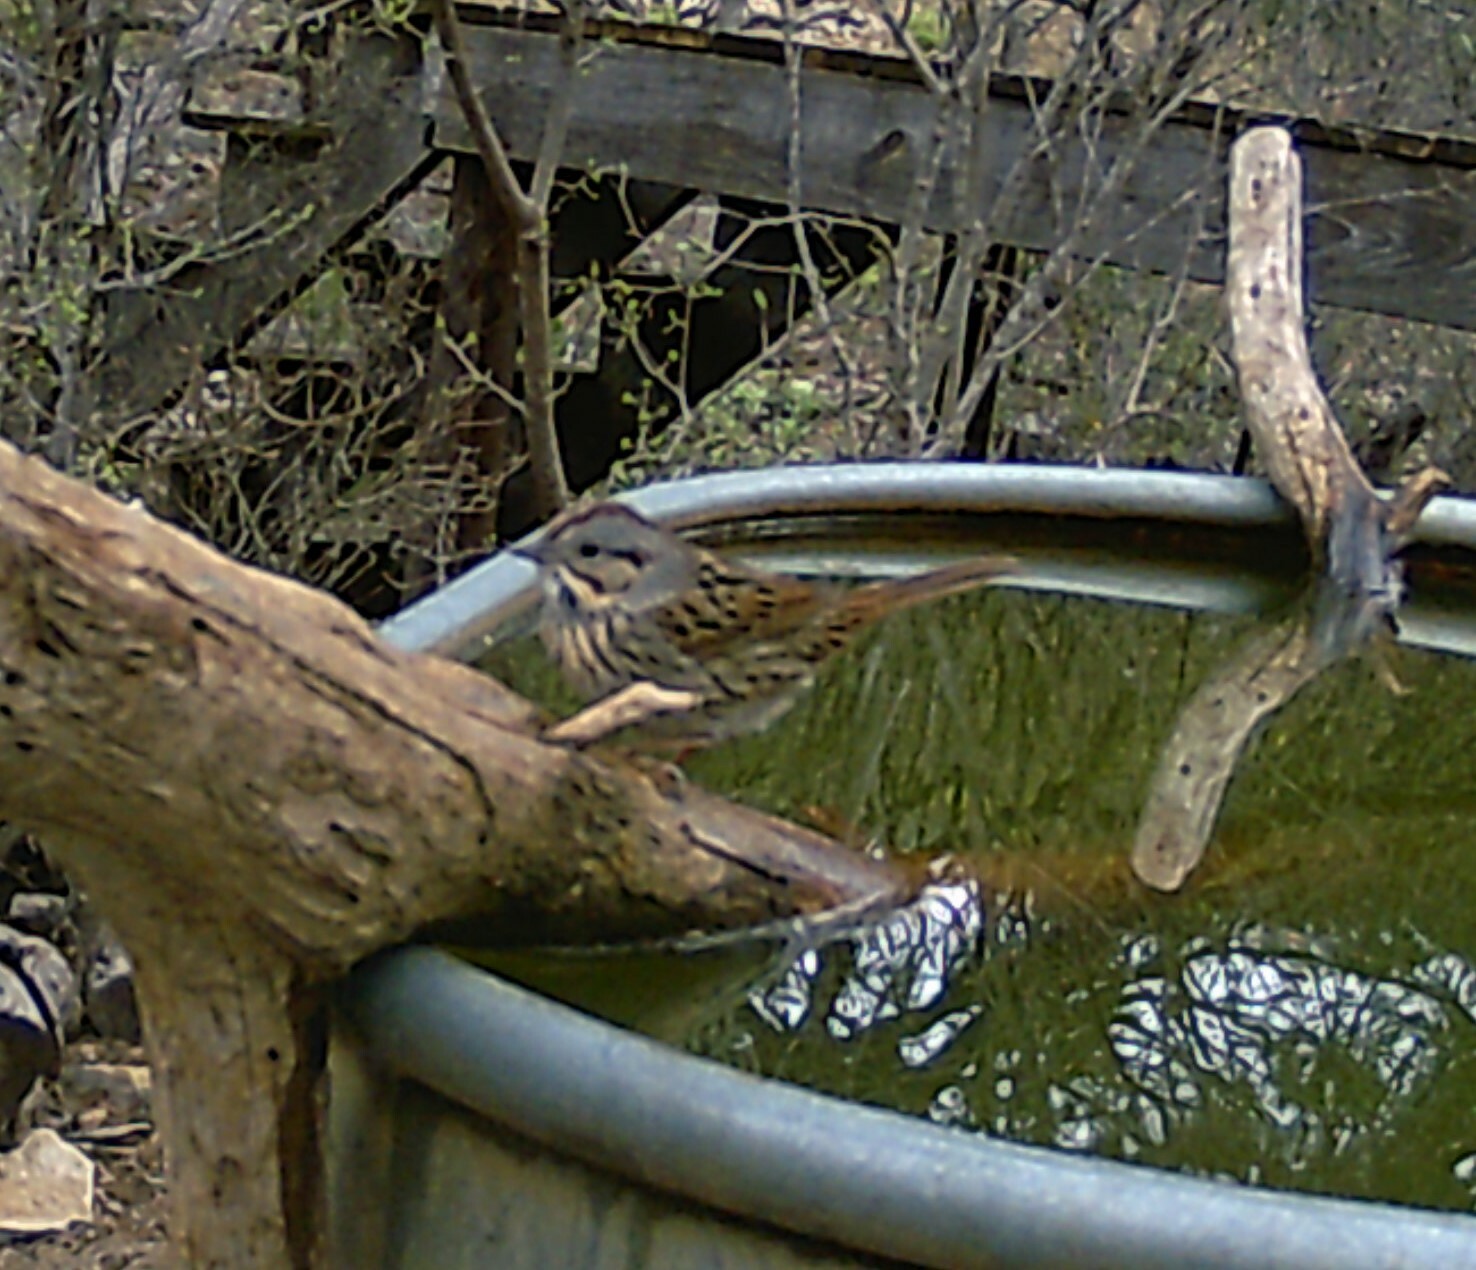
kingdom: Animalia
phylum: Chordata
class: Aves
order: Passeriformes
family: Passerellidae
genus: Melospiza
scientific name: Melospiza lincolnii
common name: Lincoln's sparrow
